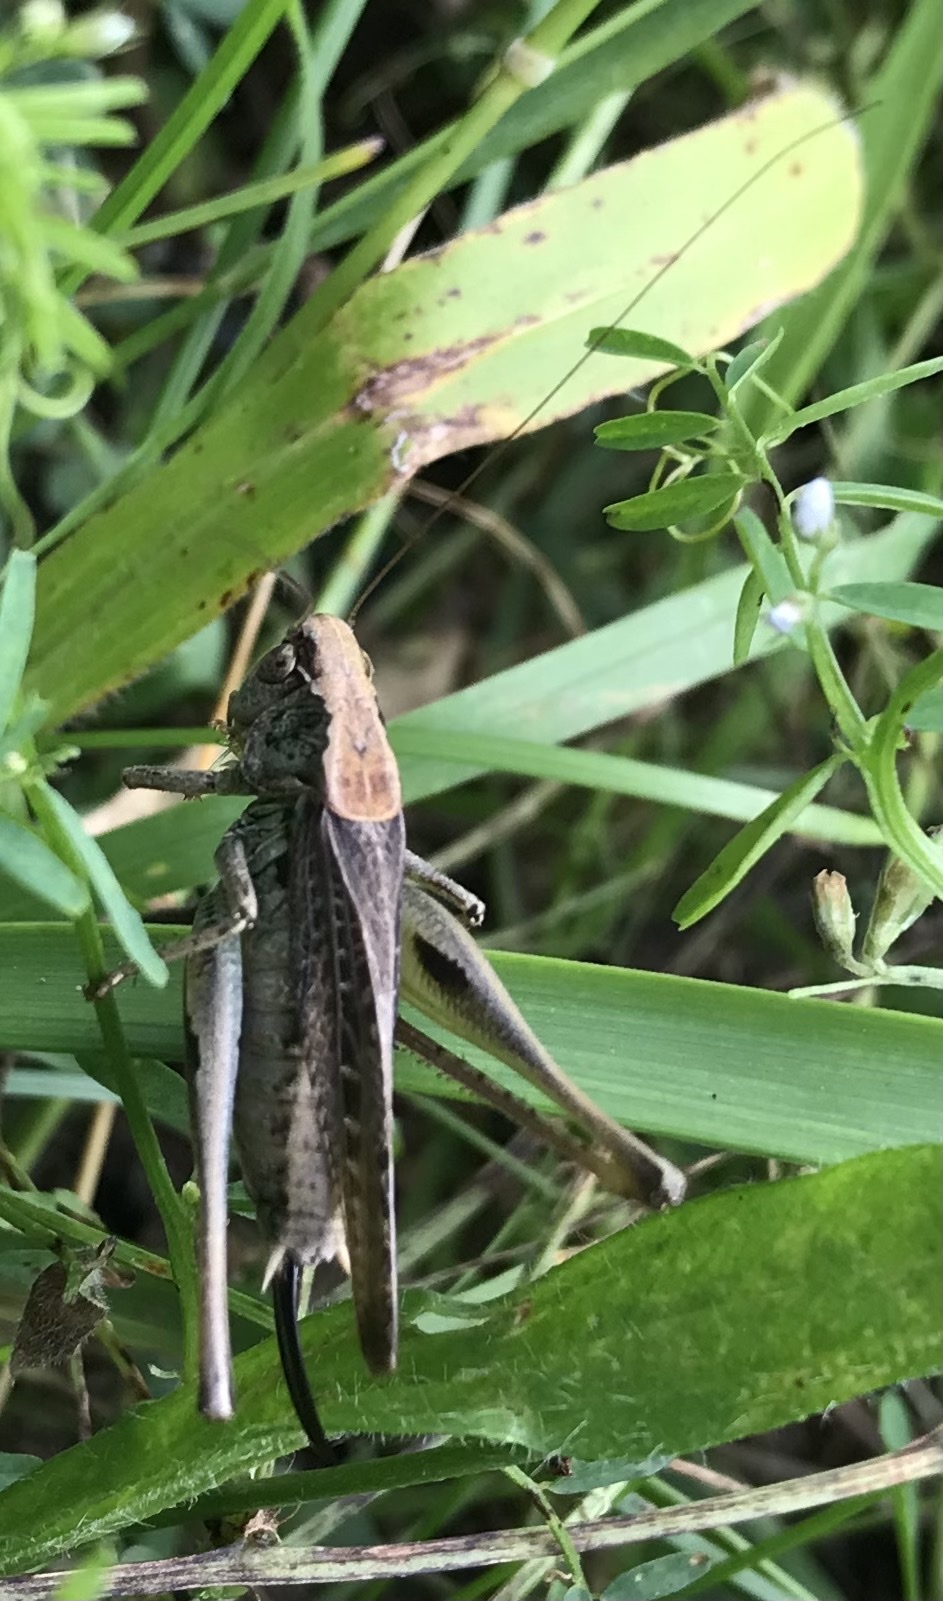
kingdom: Animalia
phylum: Arthropoda
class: Insecta
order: Orthoptera
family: Tettigoniidae
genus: Platycleis
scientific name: Platycleis albopunctata
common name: Grey bush-cricket
